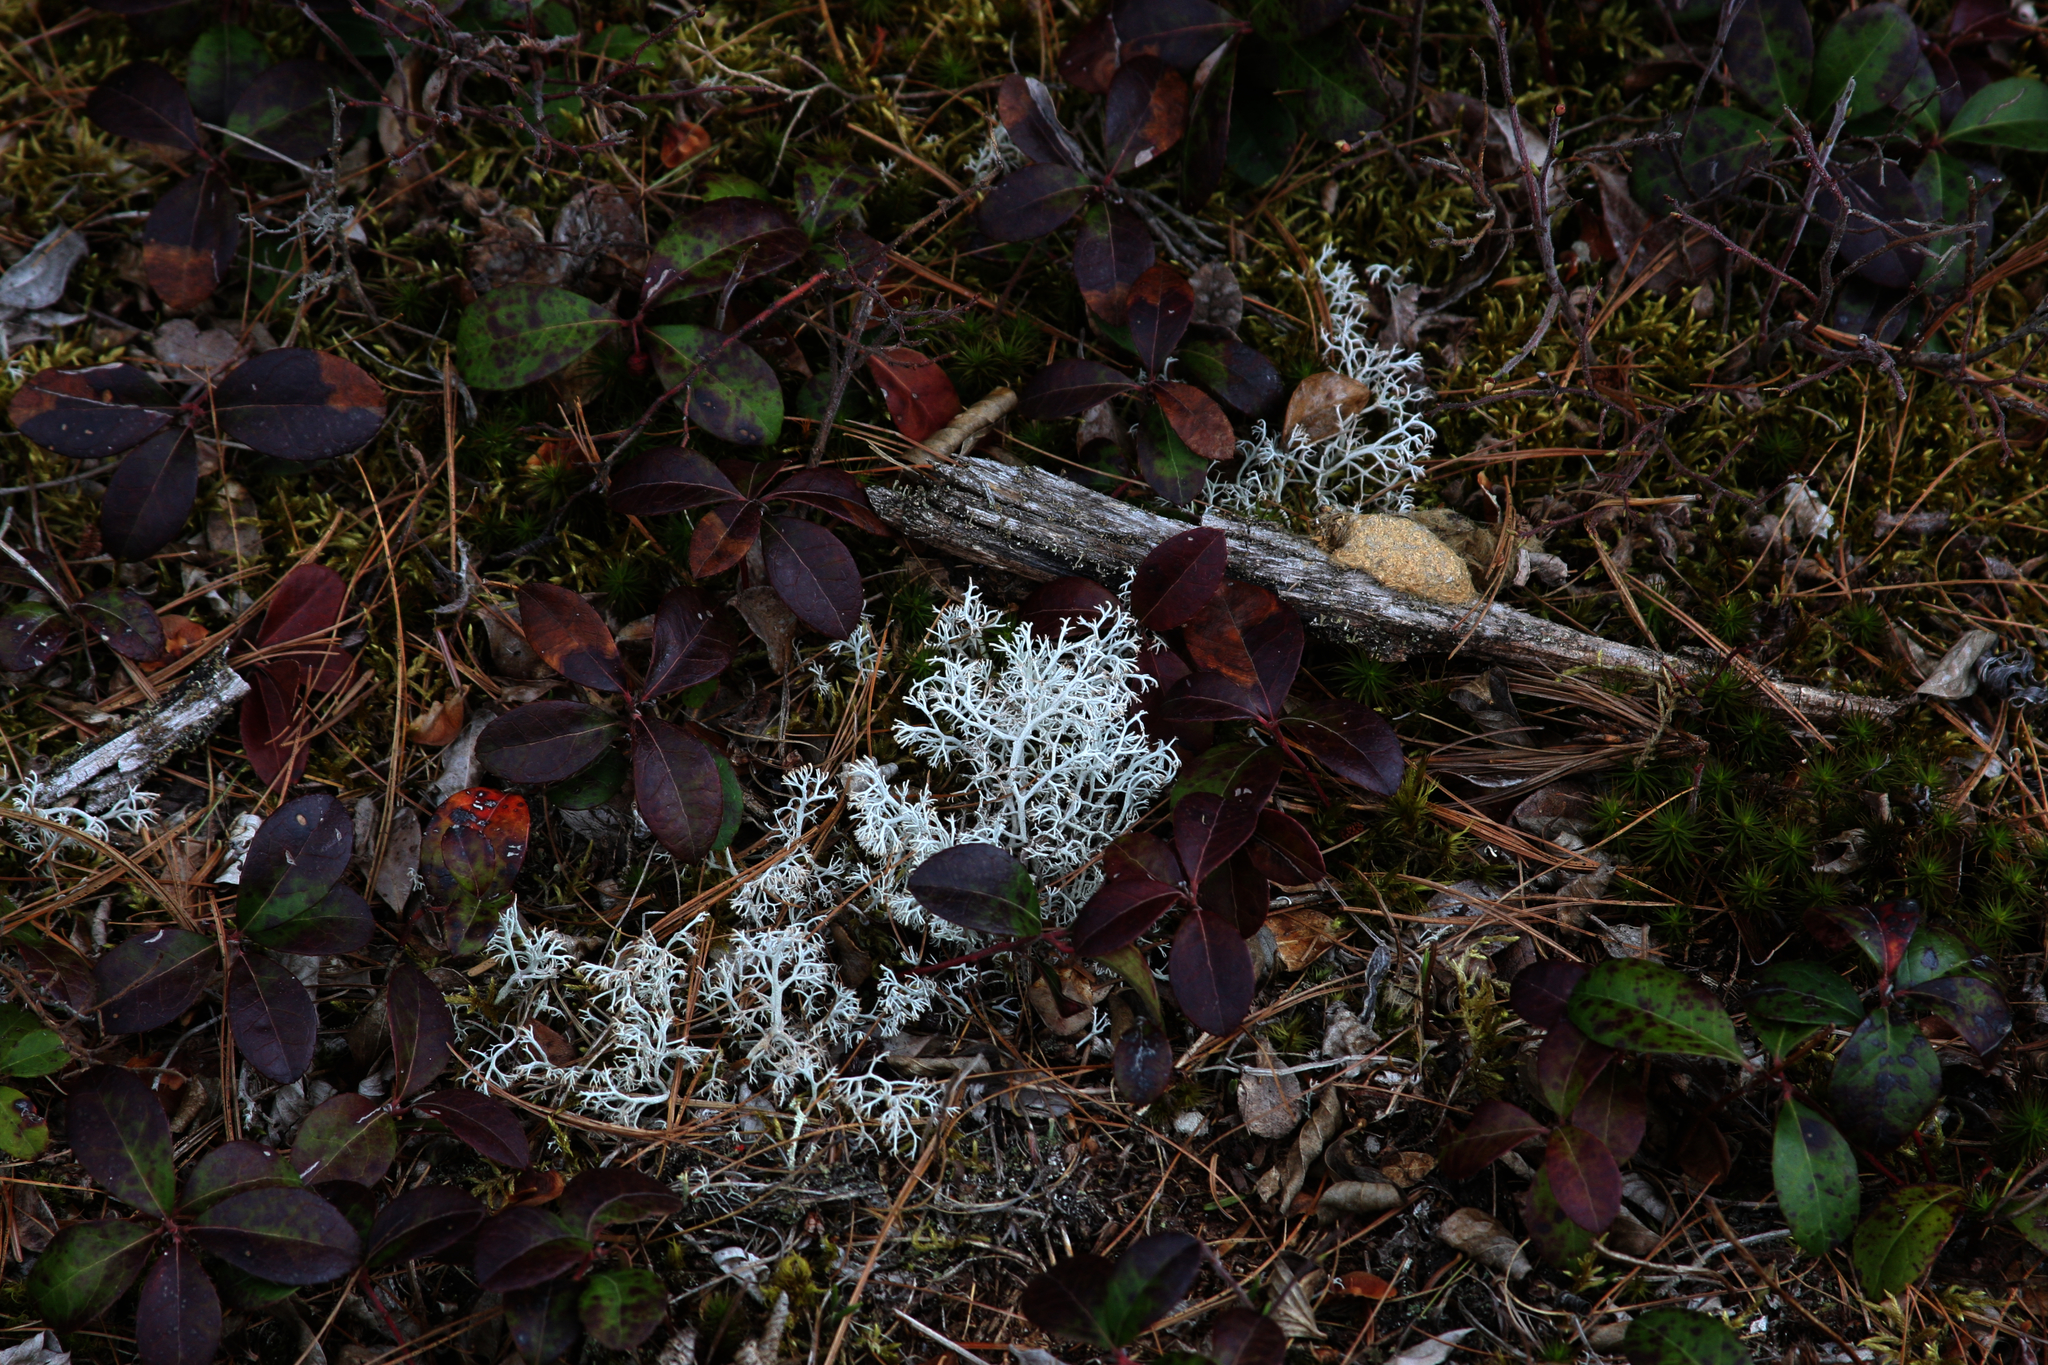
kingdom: Fungi
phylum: Ascomycota
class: Lecanoromycetes
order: Lecanorales
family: Cladoniaceae
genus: Cladonia
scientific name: Cladonia rangiferina
